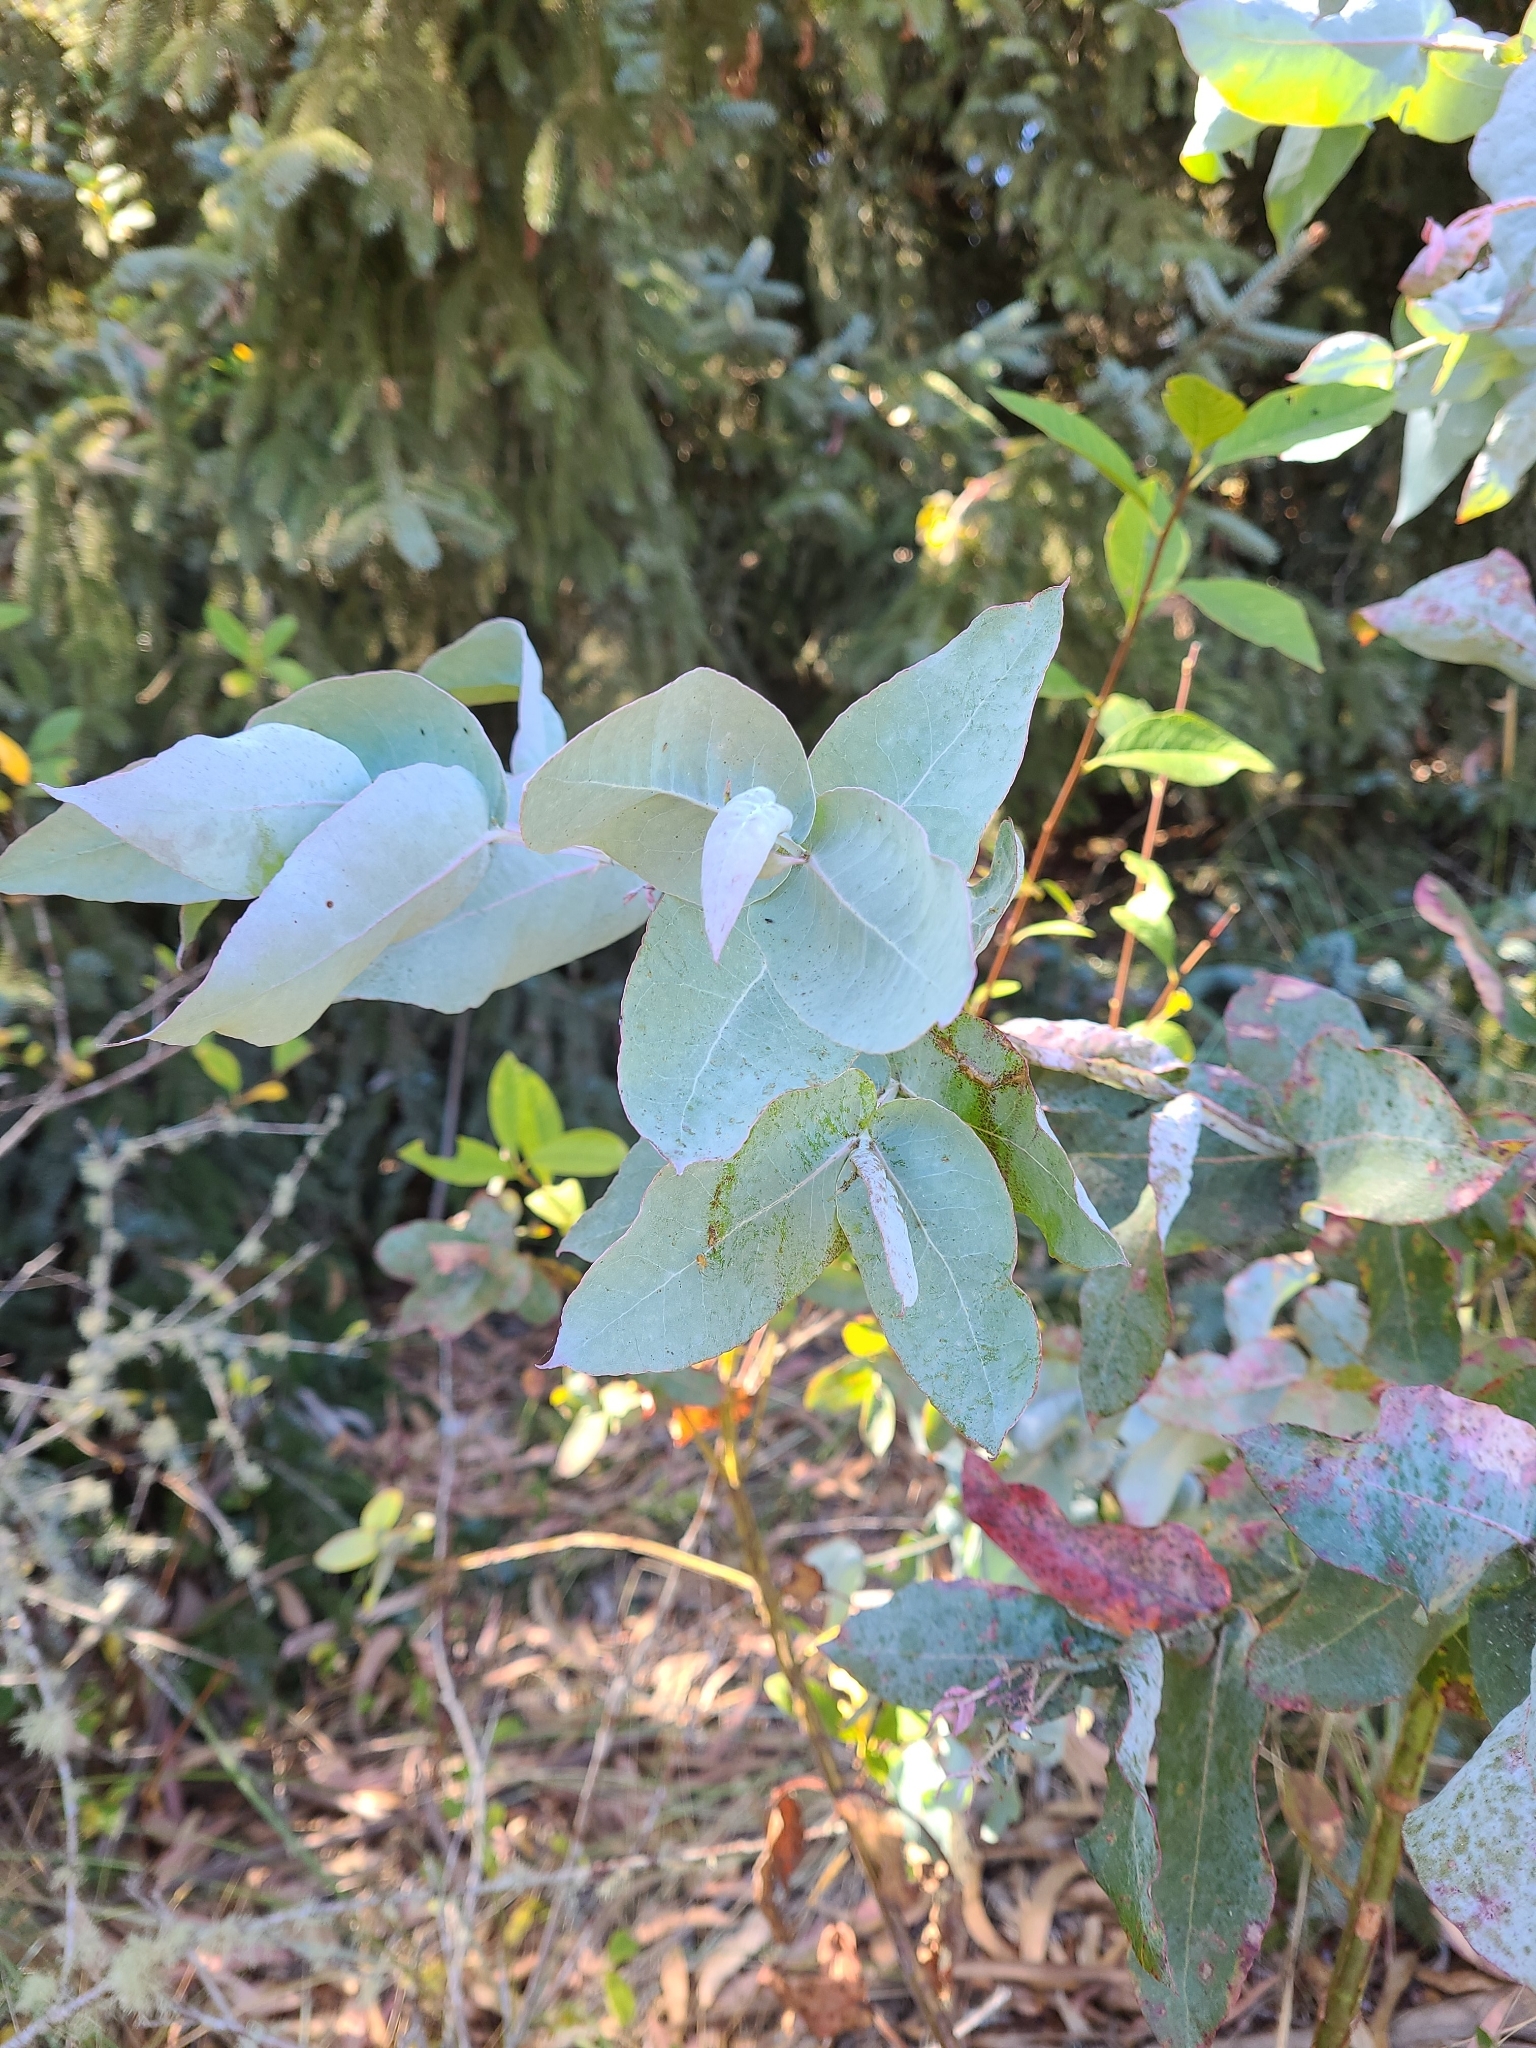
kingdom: Plantae
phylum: Tracheophyta
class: Magnoliopsida
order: Myrtales
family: Myrtaceae
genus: Eucalyptus
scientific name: Eucalyptus globulus
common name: Southern blue-gum
